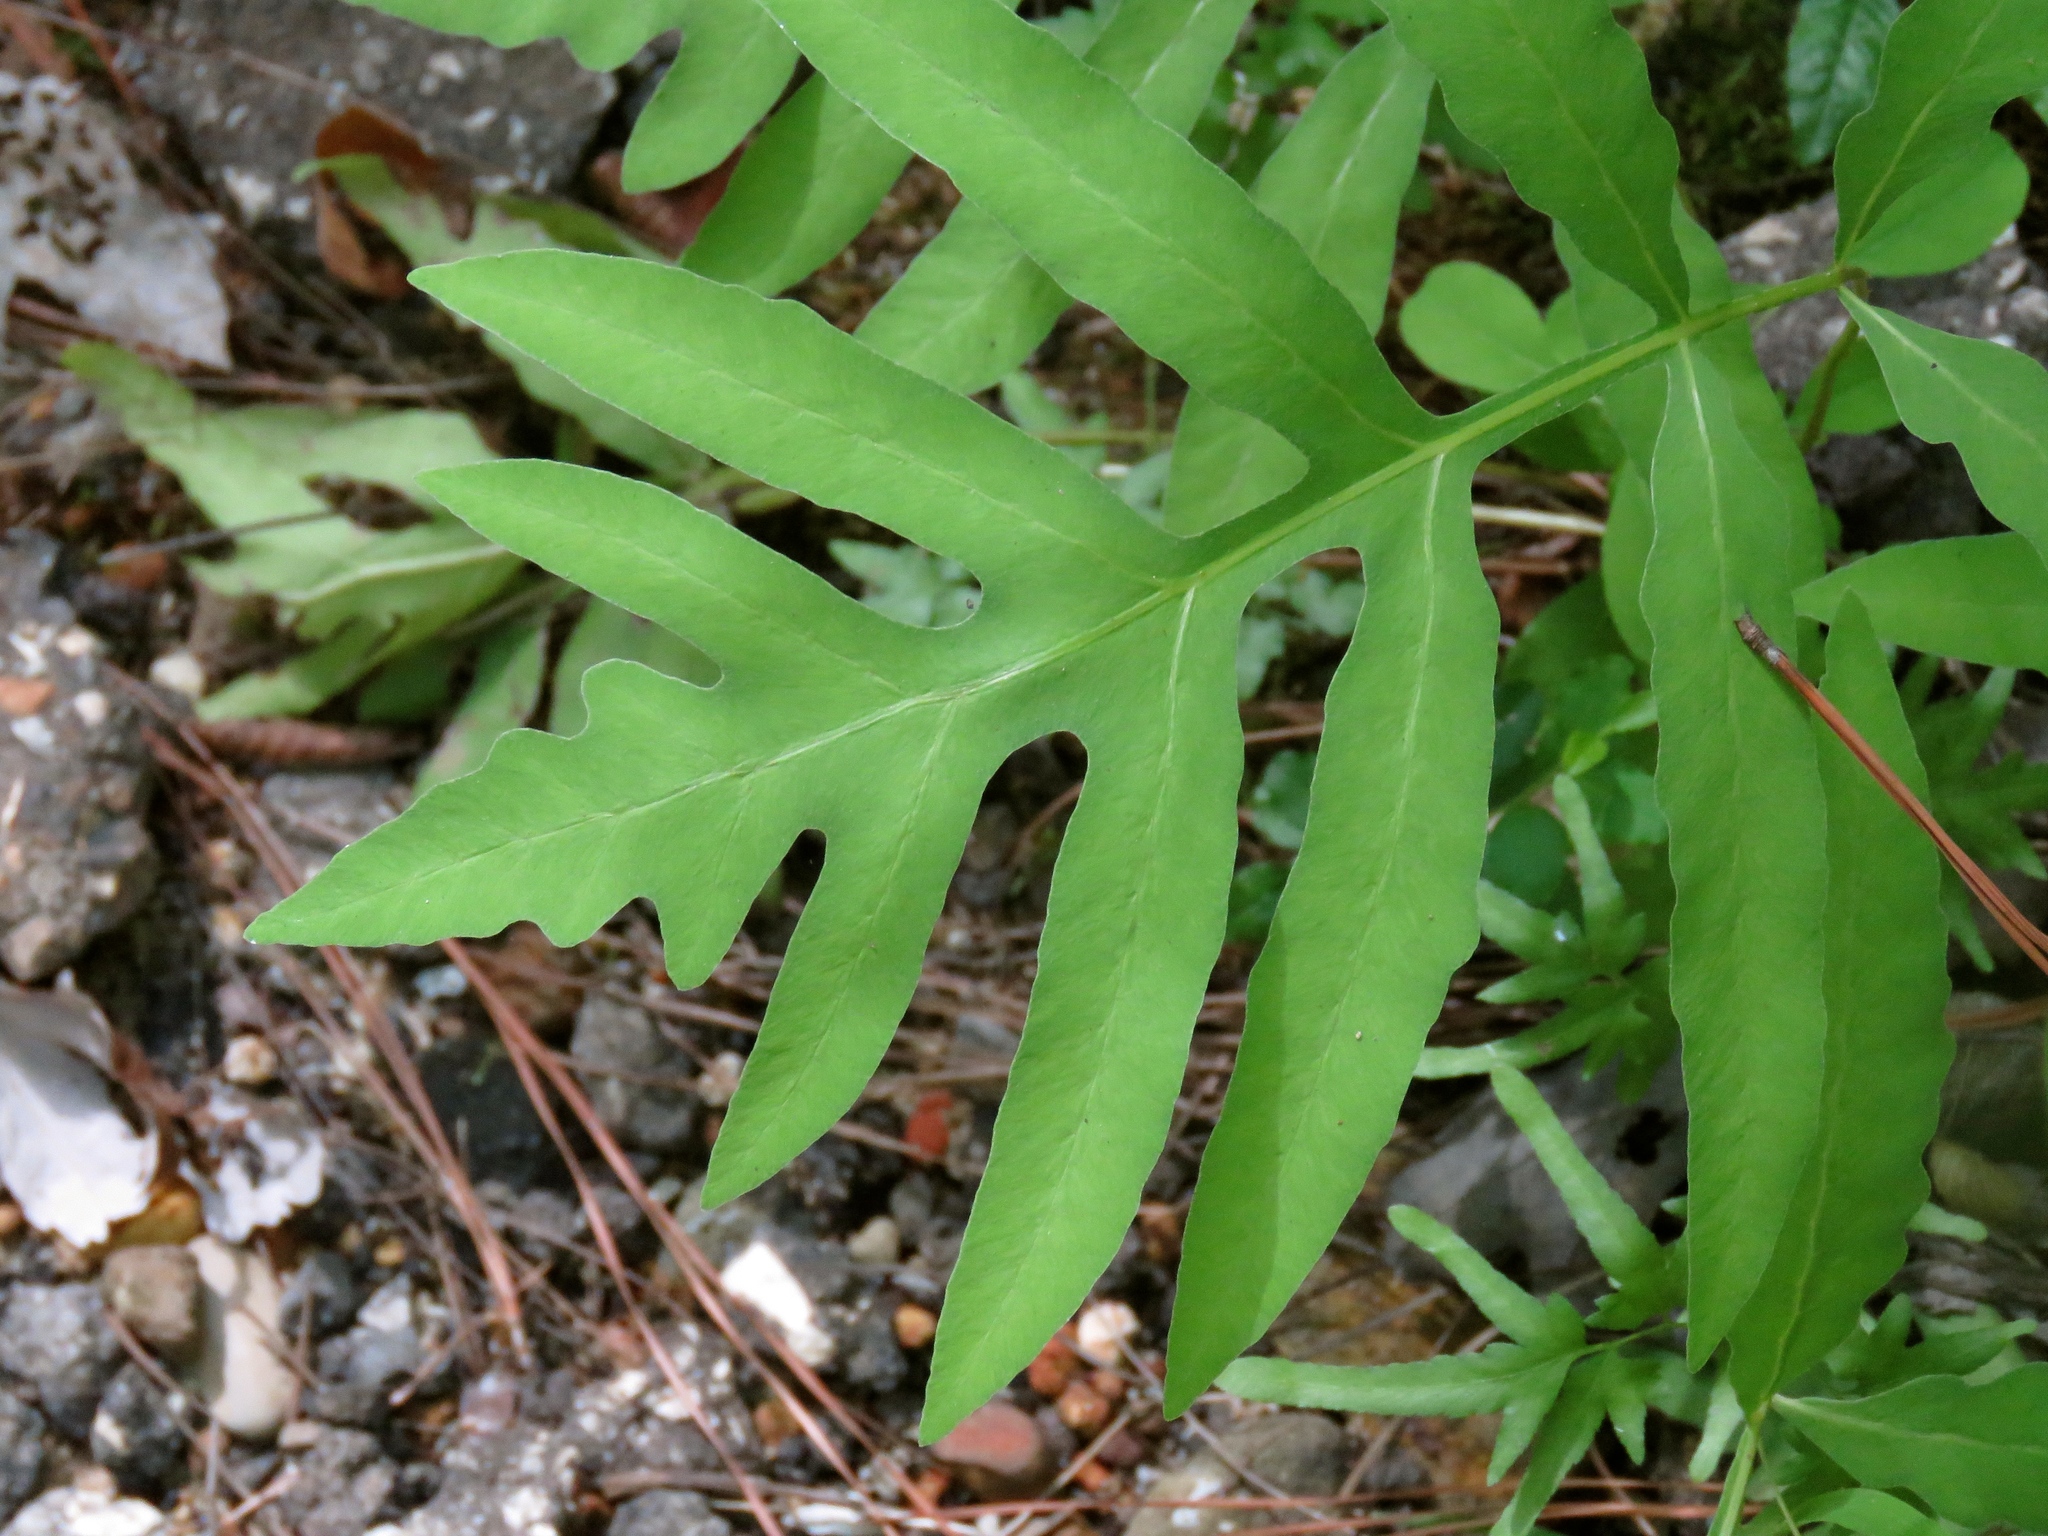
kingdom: Plantae
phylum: Tracheophyta
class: Polypodiopsida
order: Polypodiales
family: Onocleaceae
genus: Onoclea
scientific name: Onoclea sensibilis
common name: Sensitive fern
